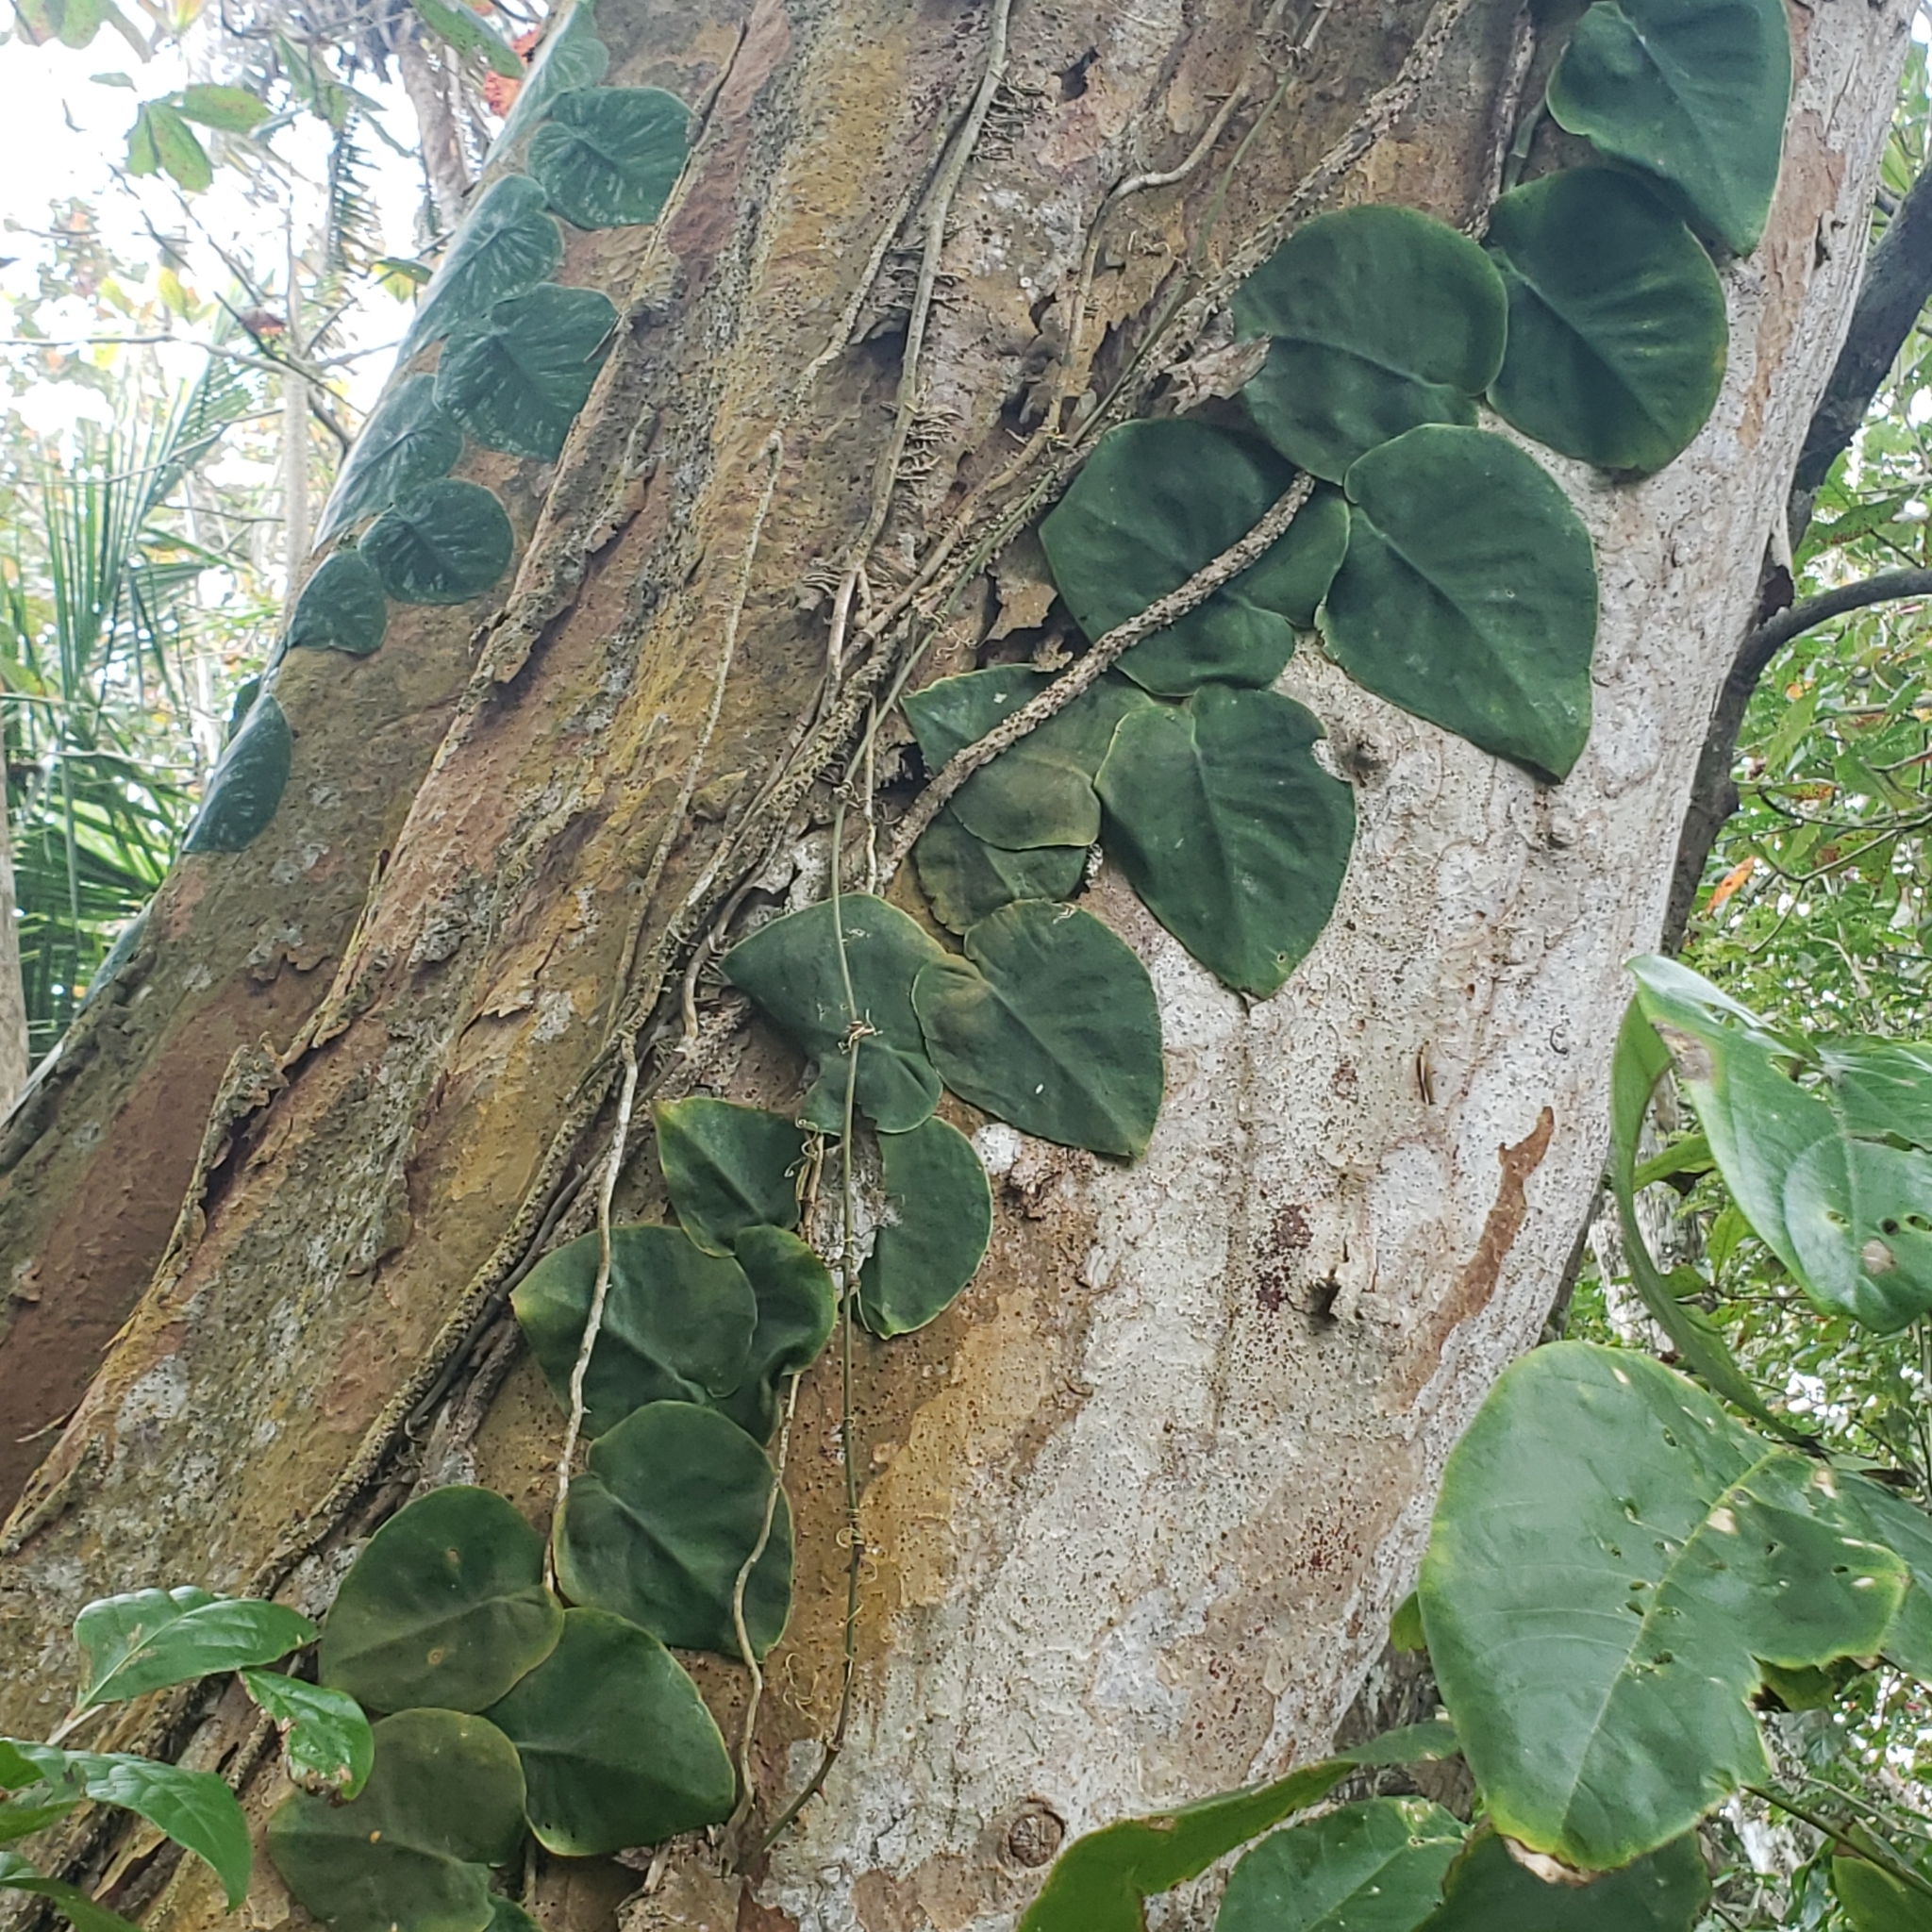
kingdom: Plantae
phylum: Tracheophyta
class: Liliopsida
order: Alismatales
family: Araceae
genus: Monstera
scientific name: Monstera tenuis
